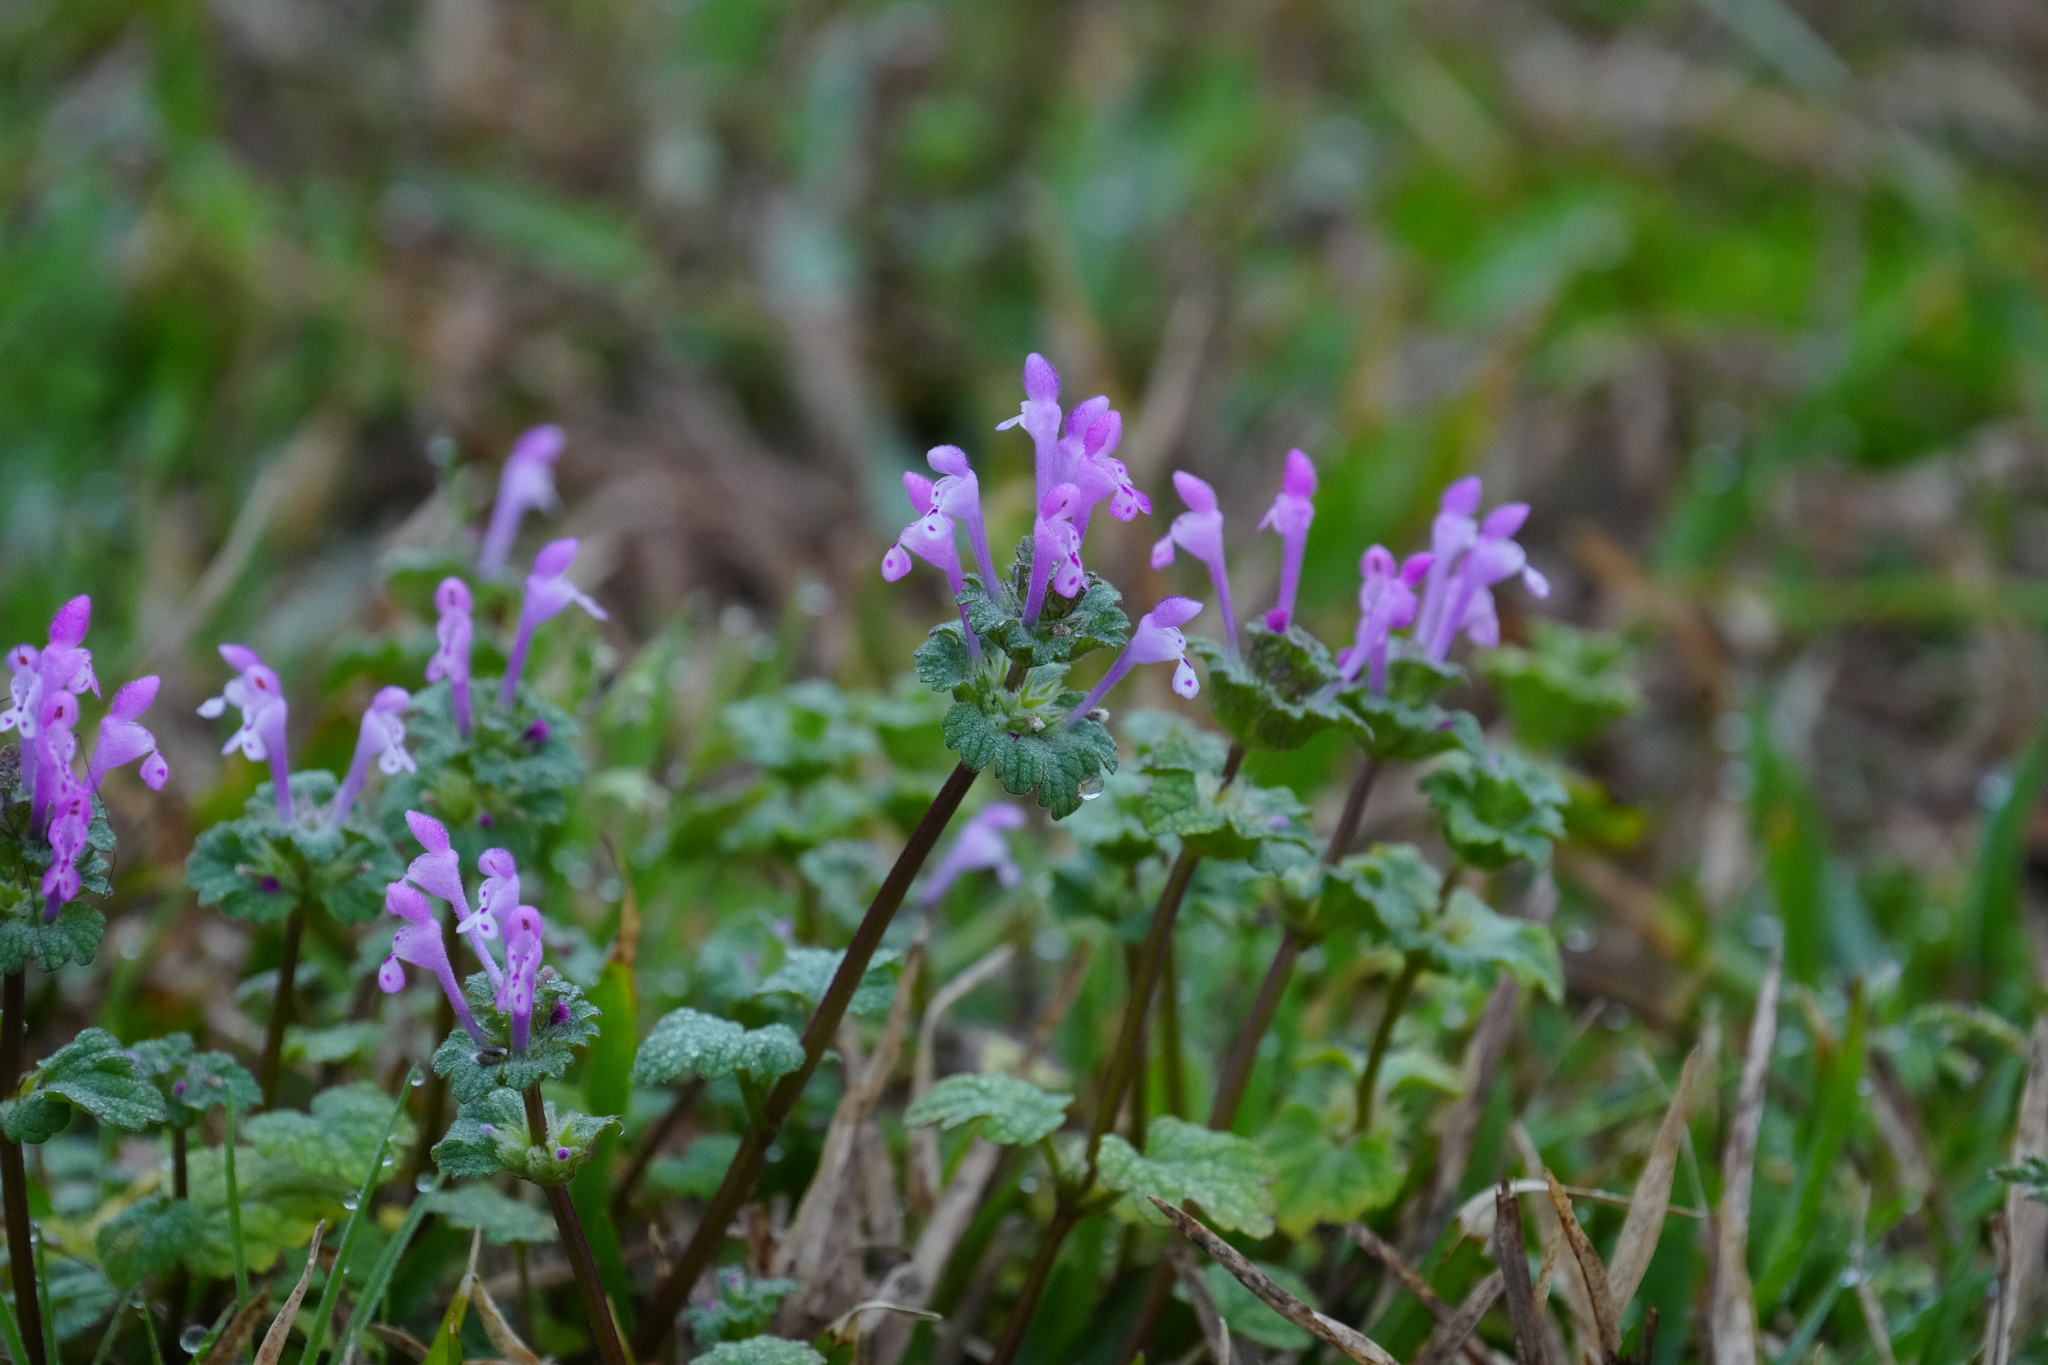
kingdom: Plantae
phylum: Tracheophyta
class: Magnoliopsida
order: Lamiales
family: Lamiaceae
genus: Lamium
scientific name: Lamium amplexicaule
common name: Henbit dead-nettle
